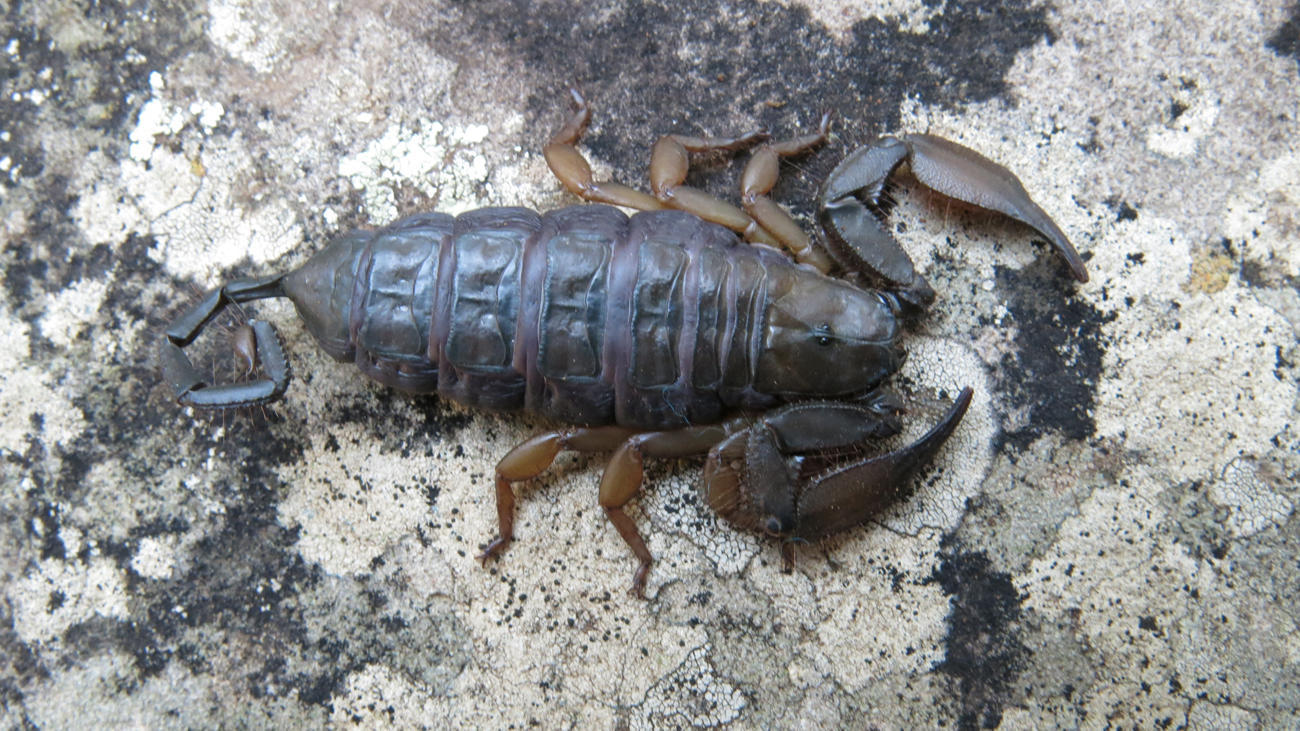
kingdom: Animalia
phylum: Arthropoda
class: Arachnida
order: Scorpiones
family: Hormuridae
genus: Hadogenes
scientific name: Hadogenes troglodytes
